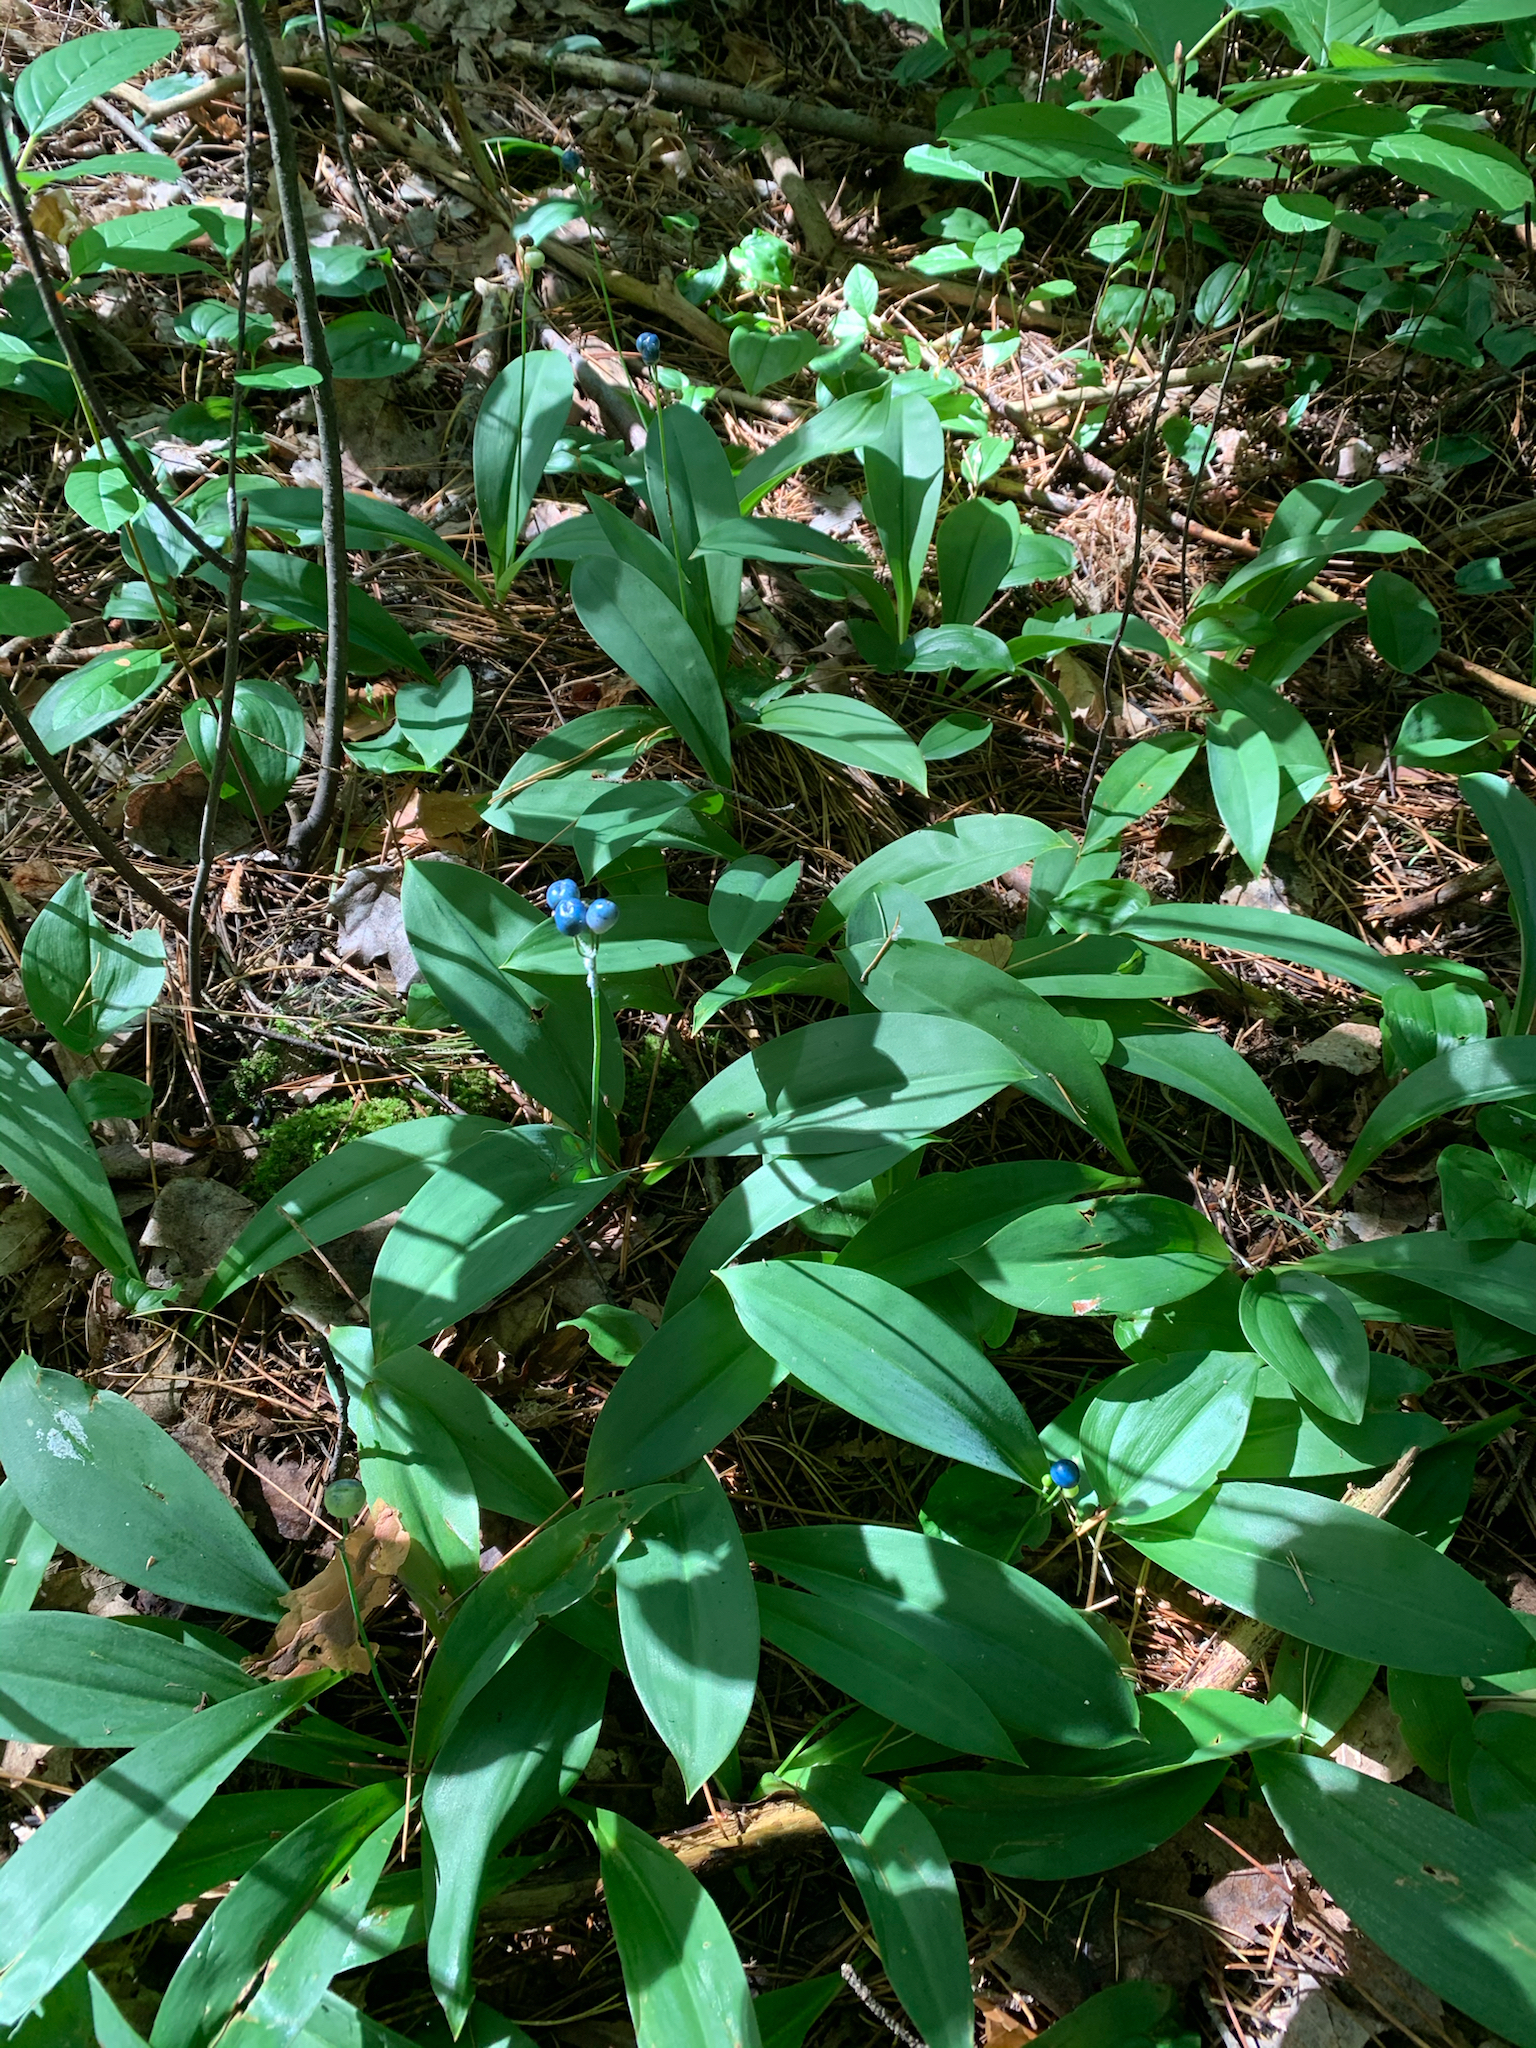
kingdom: Plantae
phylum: Tracheophyta
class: Liliopsida
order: Liliales
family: Liliaceae
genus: Clintonia
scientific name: Clintonia borealis
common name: Yellow clintonia
